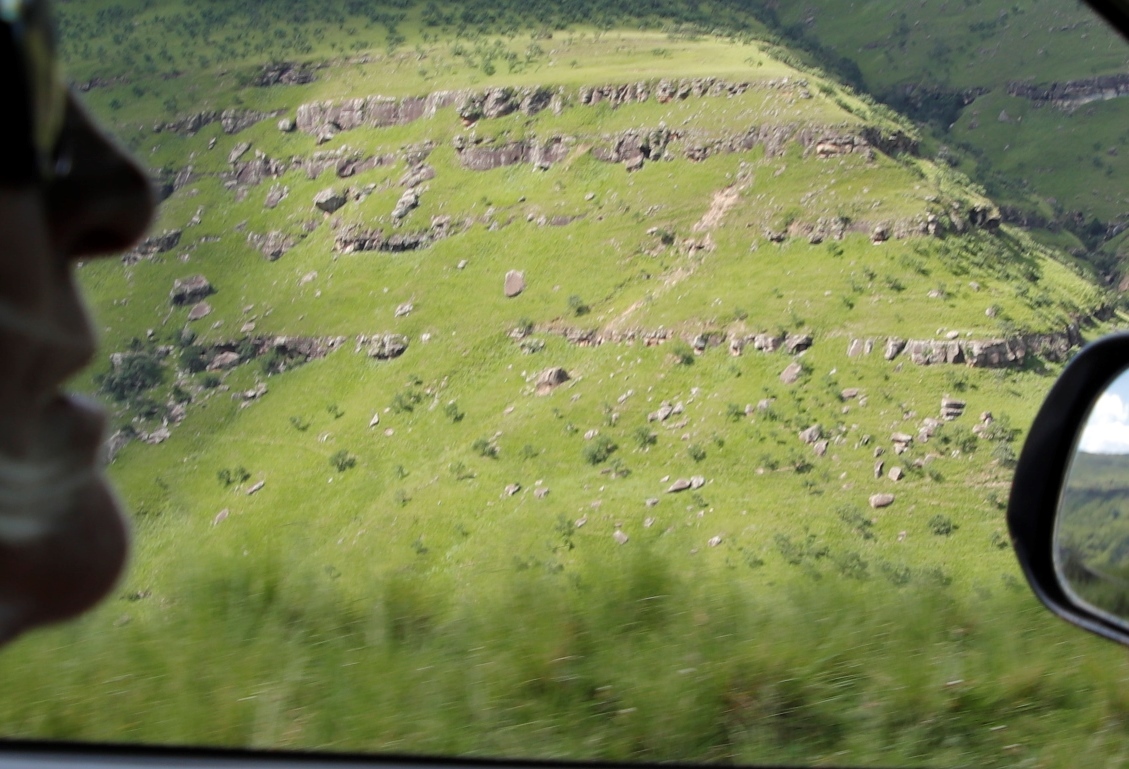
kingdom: Plantae
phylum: Tracheophyta
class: Magnoliopsida
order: Proteales
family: Proteaceae
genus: Protea
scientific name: Protea roupelliae
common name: Silver sugarbush
